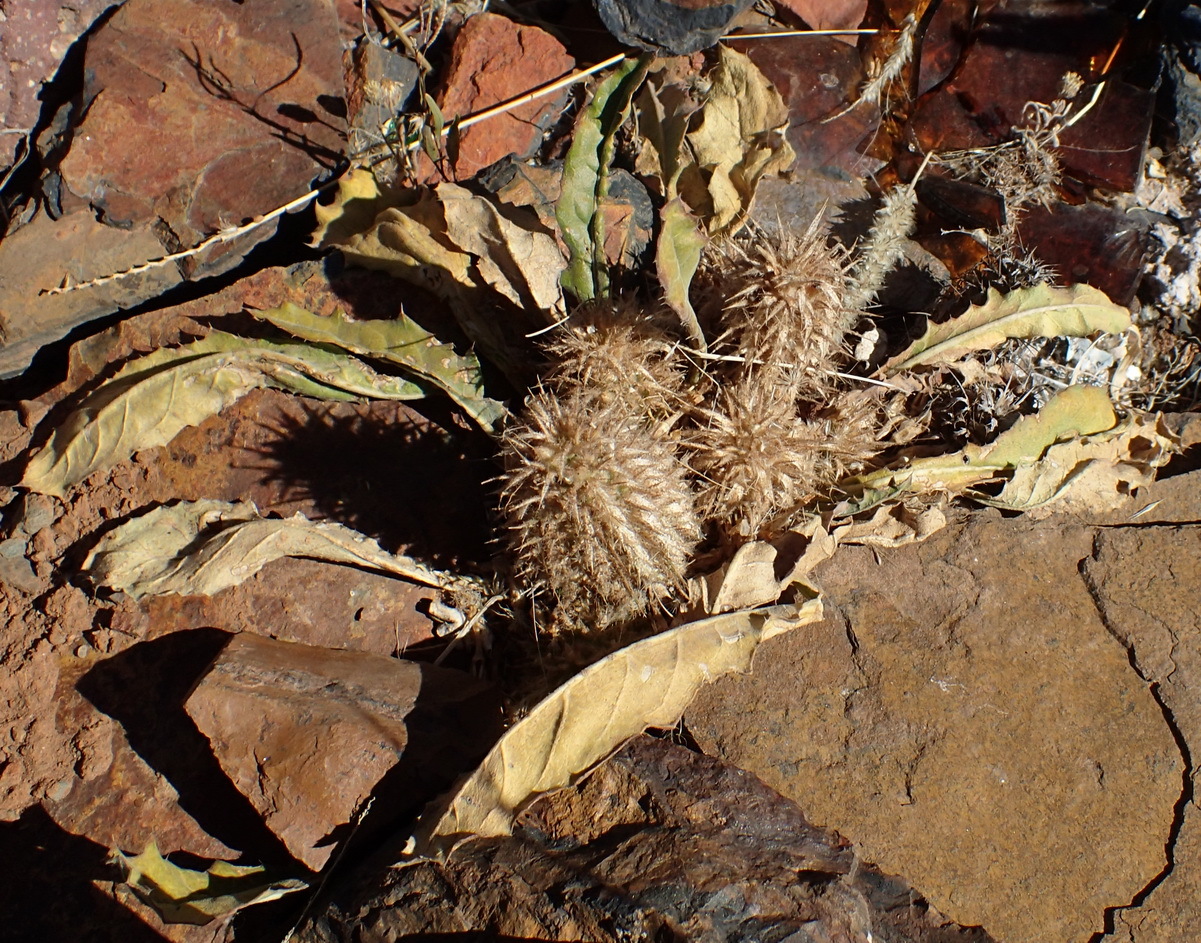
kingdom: Plantae
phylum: Tracheophyta
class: Magnoliopsida
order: Lamiales
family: Acanthaceae
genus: Acanthopsis
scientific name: Acanthopsis hoffmannseggiana
